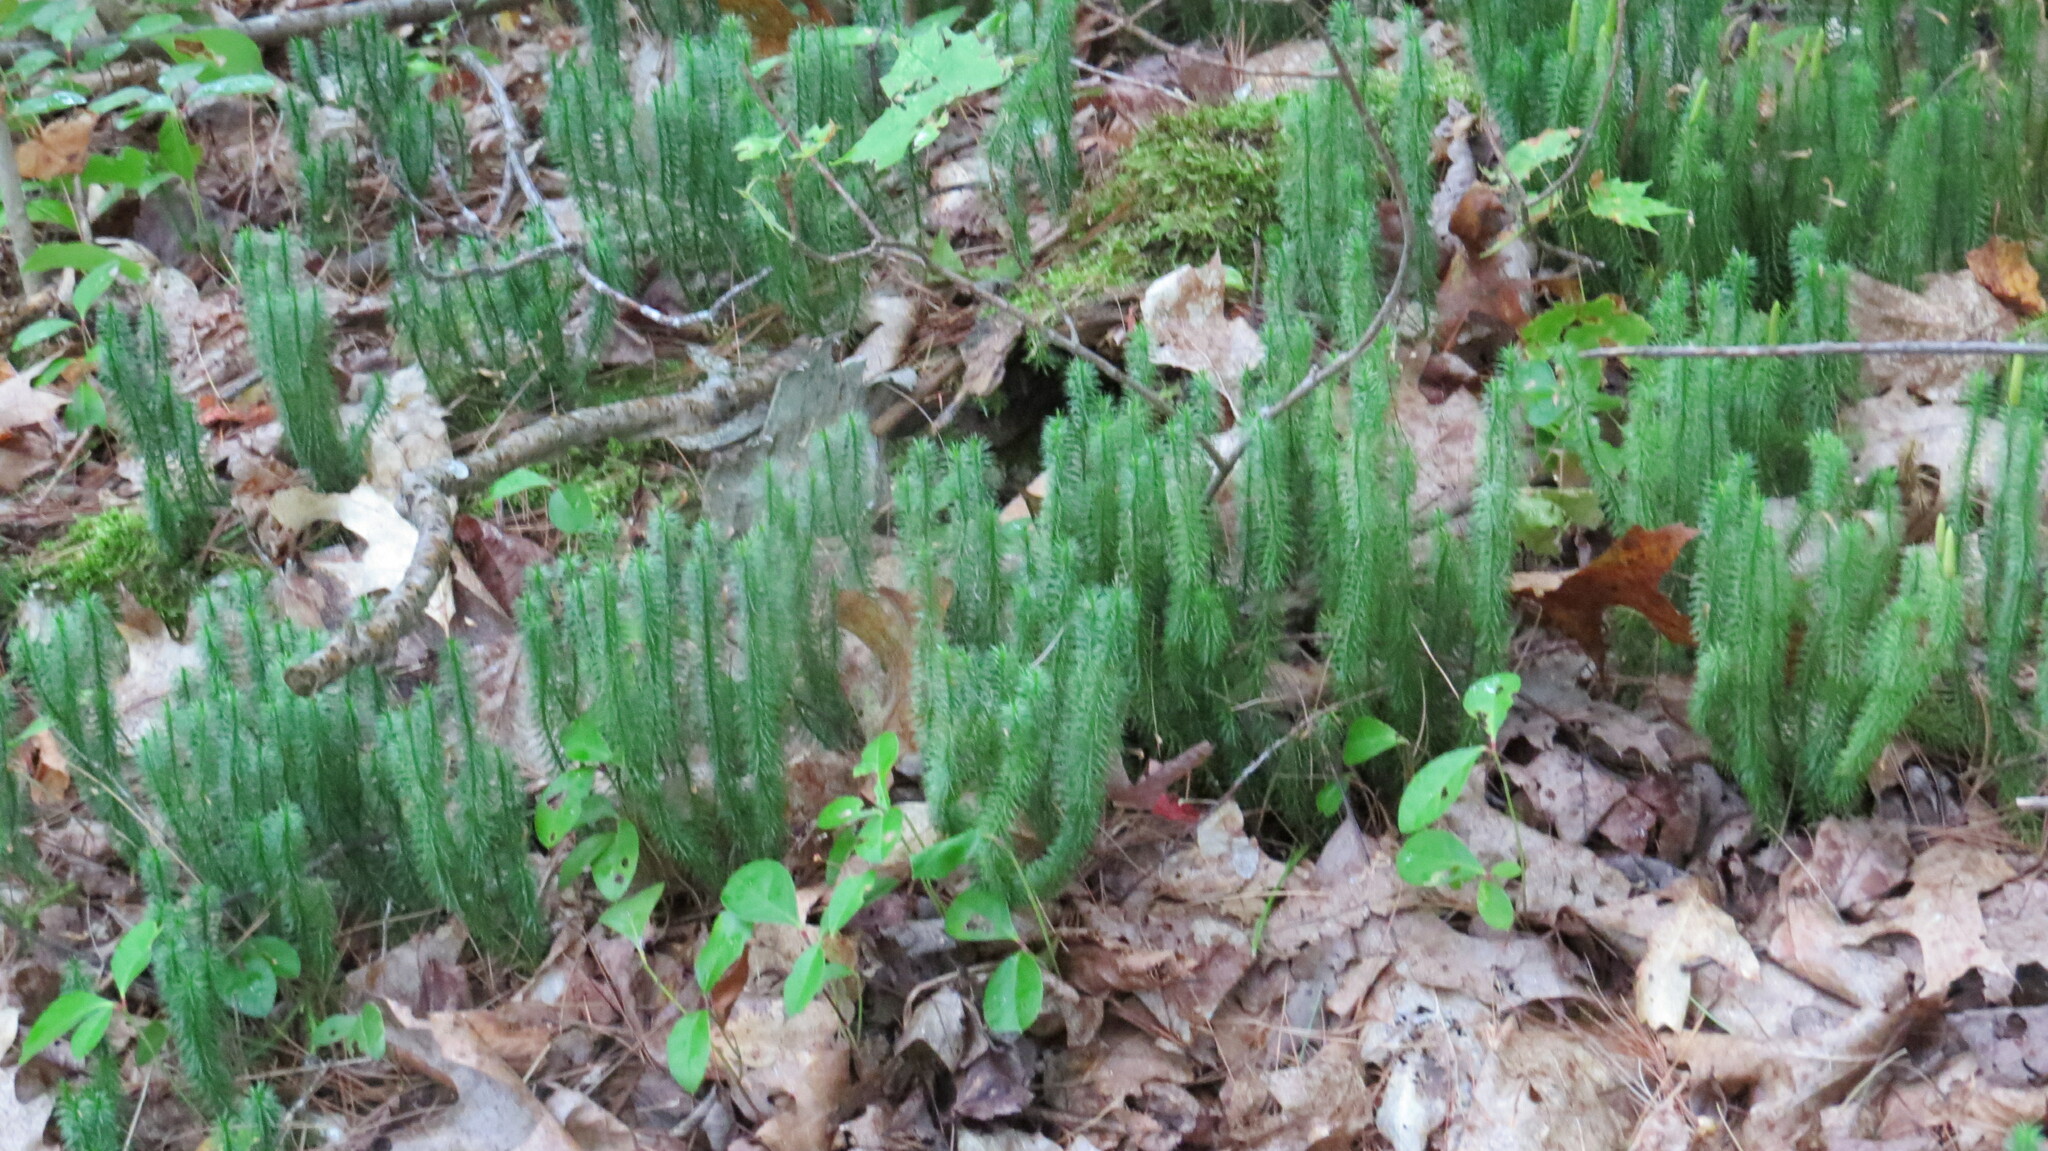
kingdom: Plantae
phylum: Tracheophyta
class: Lycopodiopsida
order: Lycopodiales
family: Lycopodiaceae
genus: Spinulum
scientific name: Spinulum annotinum
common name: Interrupted club-moss
